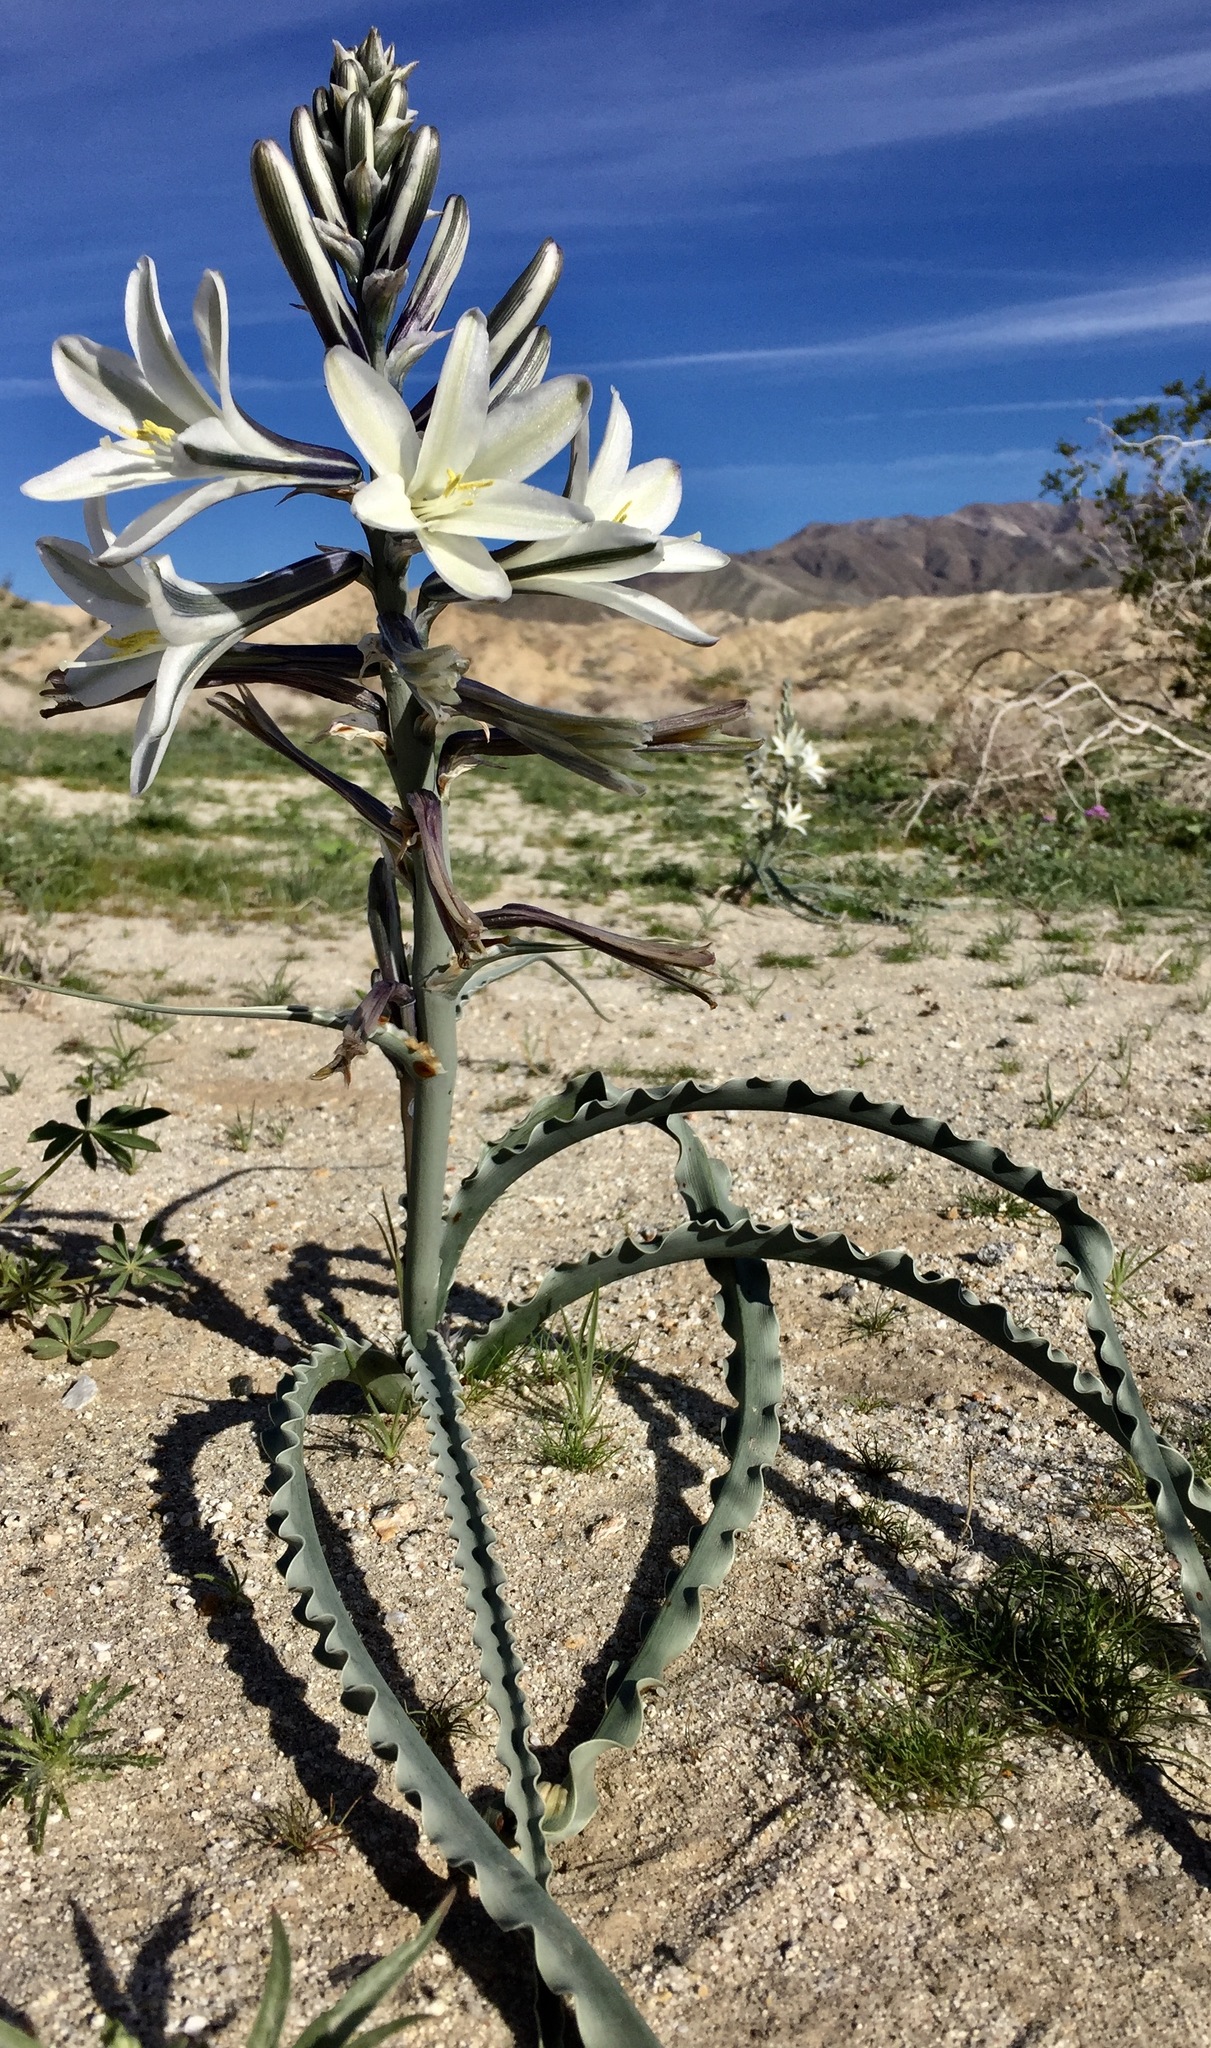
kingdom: Plantae
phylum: Tracheophyta
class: Liliopsida
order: Asparagales
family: Asparagaceae
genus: Hesperocallis
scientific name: Hesperocallis undulata
